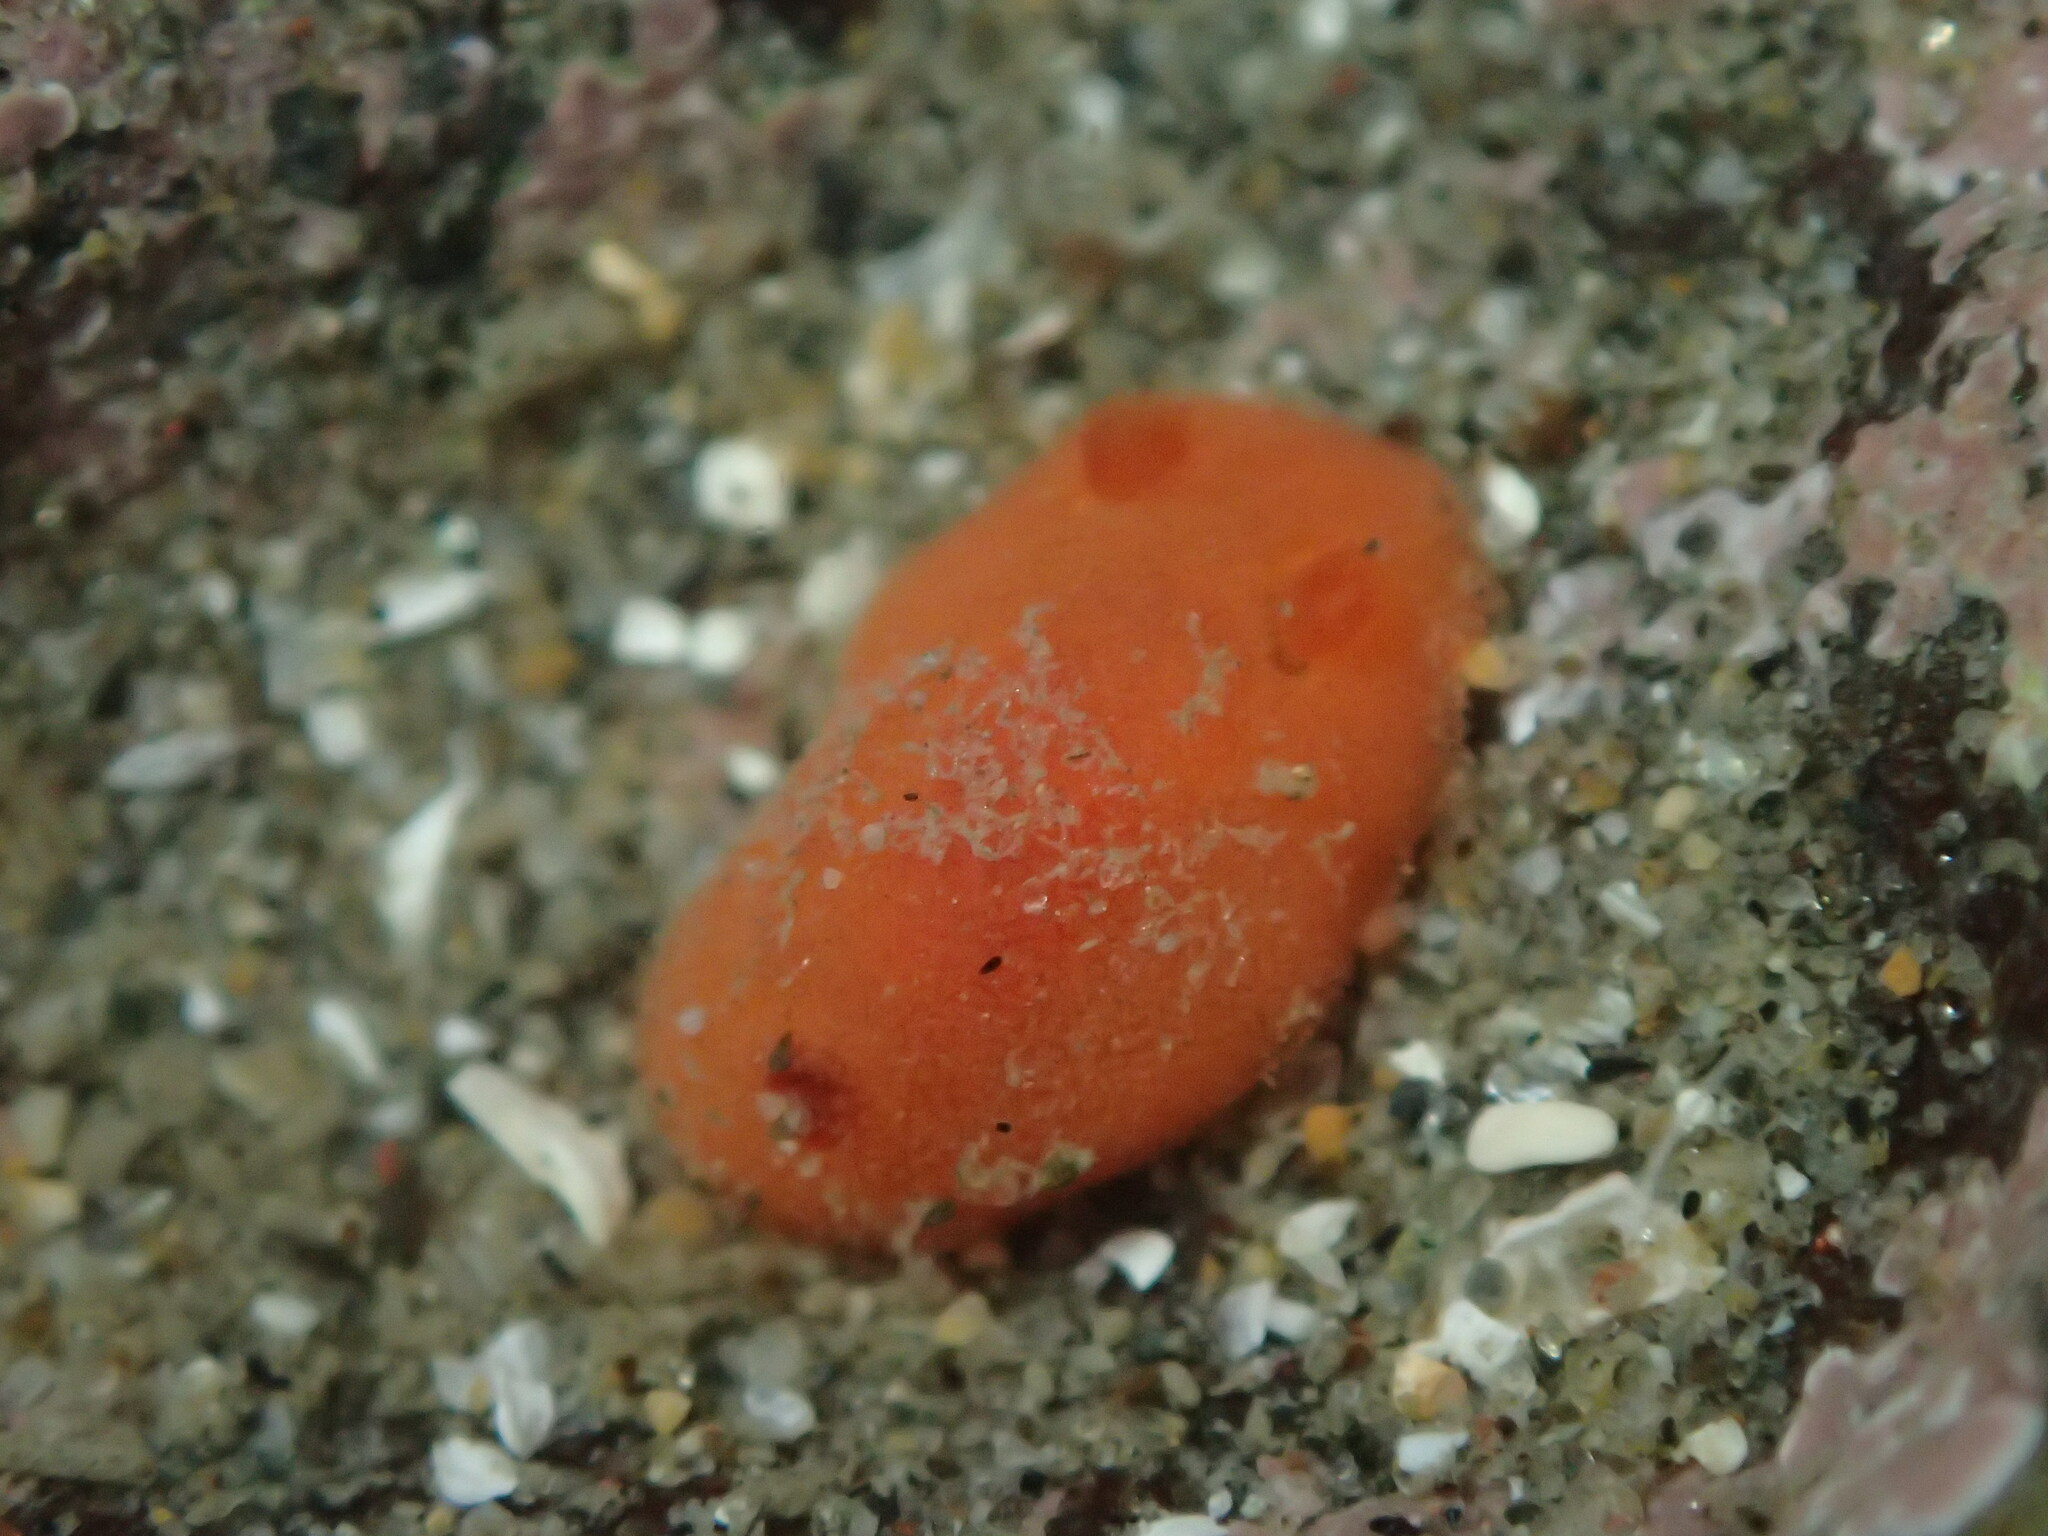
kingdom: Animalia
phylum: Mollusca
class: Gastropoda
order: Nudibranchia
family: Discodorididae
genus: Rostanga
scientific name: Rostanga pulchra
